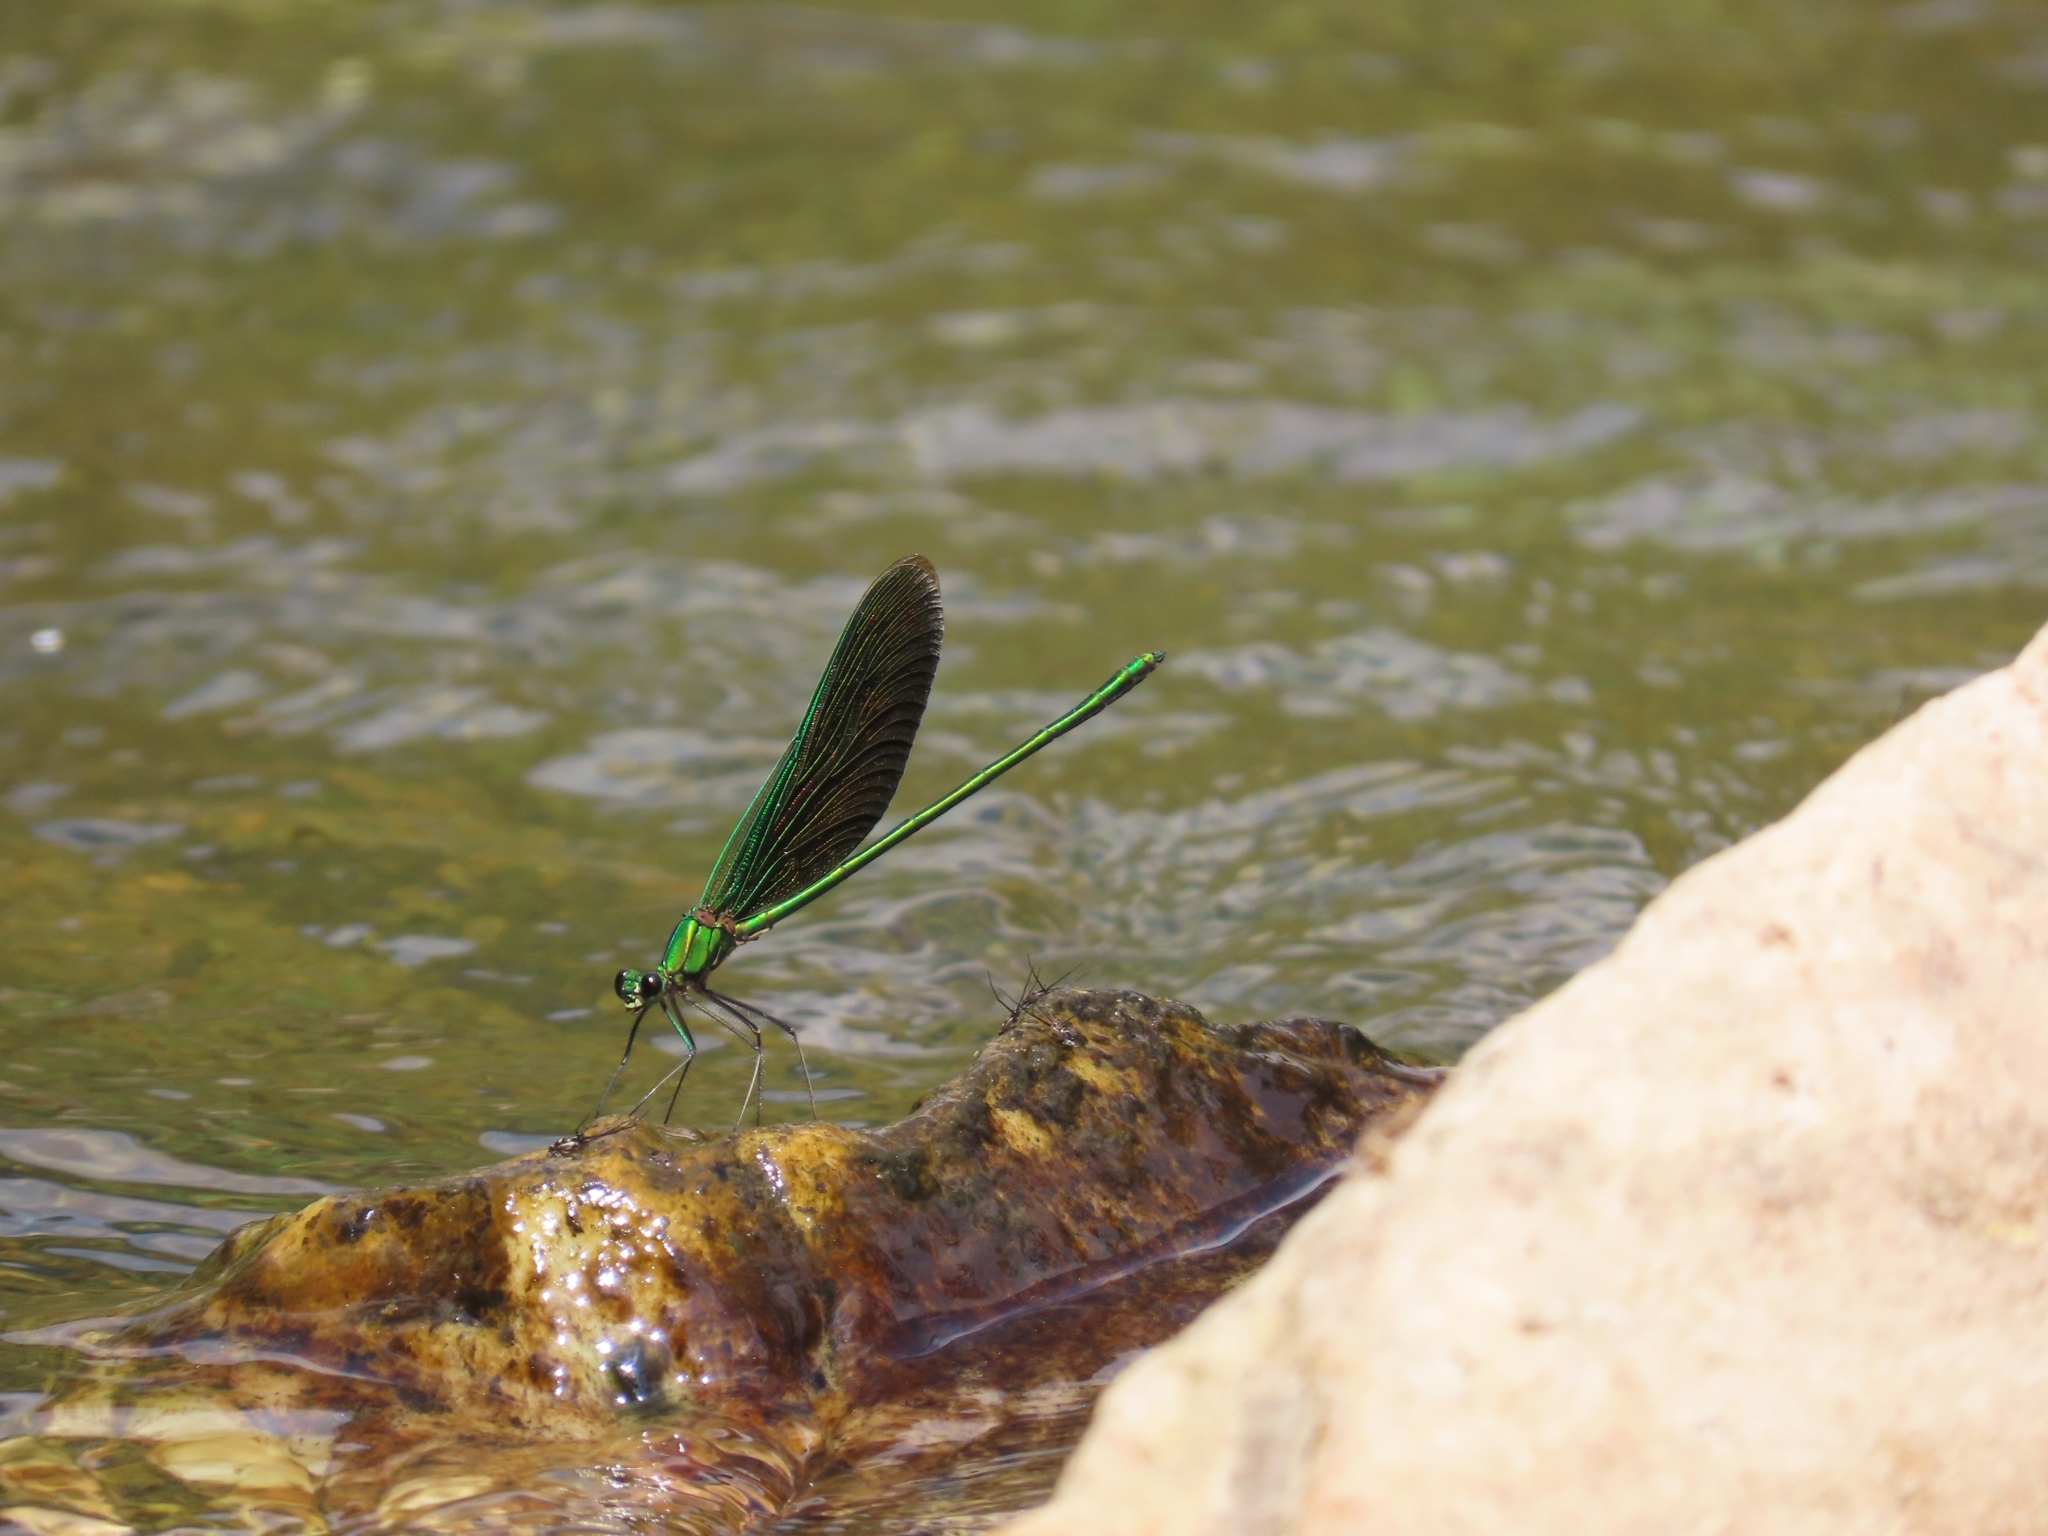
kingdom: Animalia
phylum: Arthropoda
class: Insecta
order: Odonata
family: Calopterygidae
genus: Neurobasis
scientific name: Neurobasis chinensis
